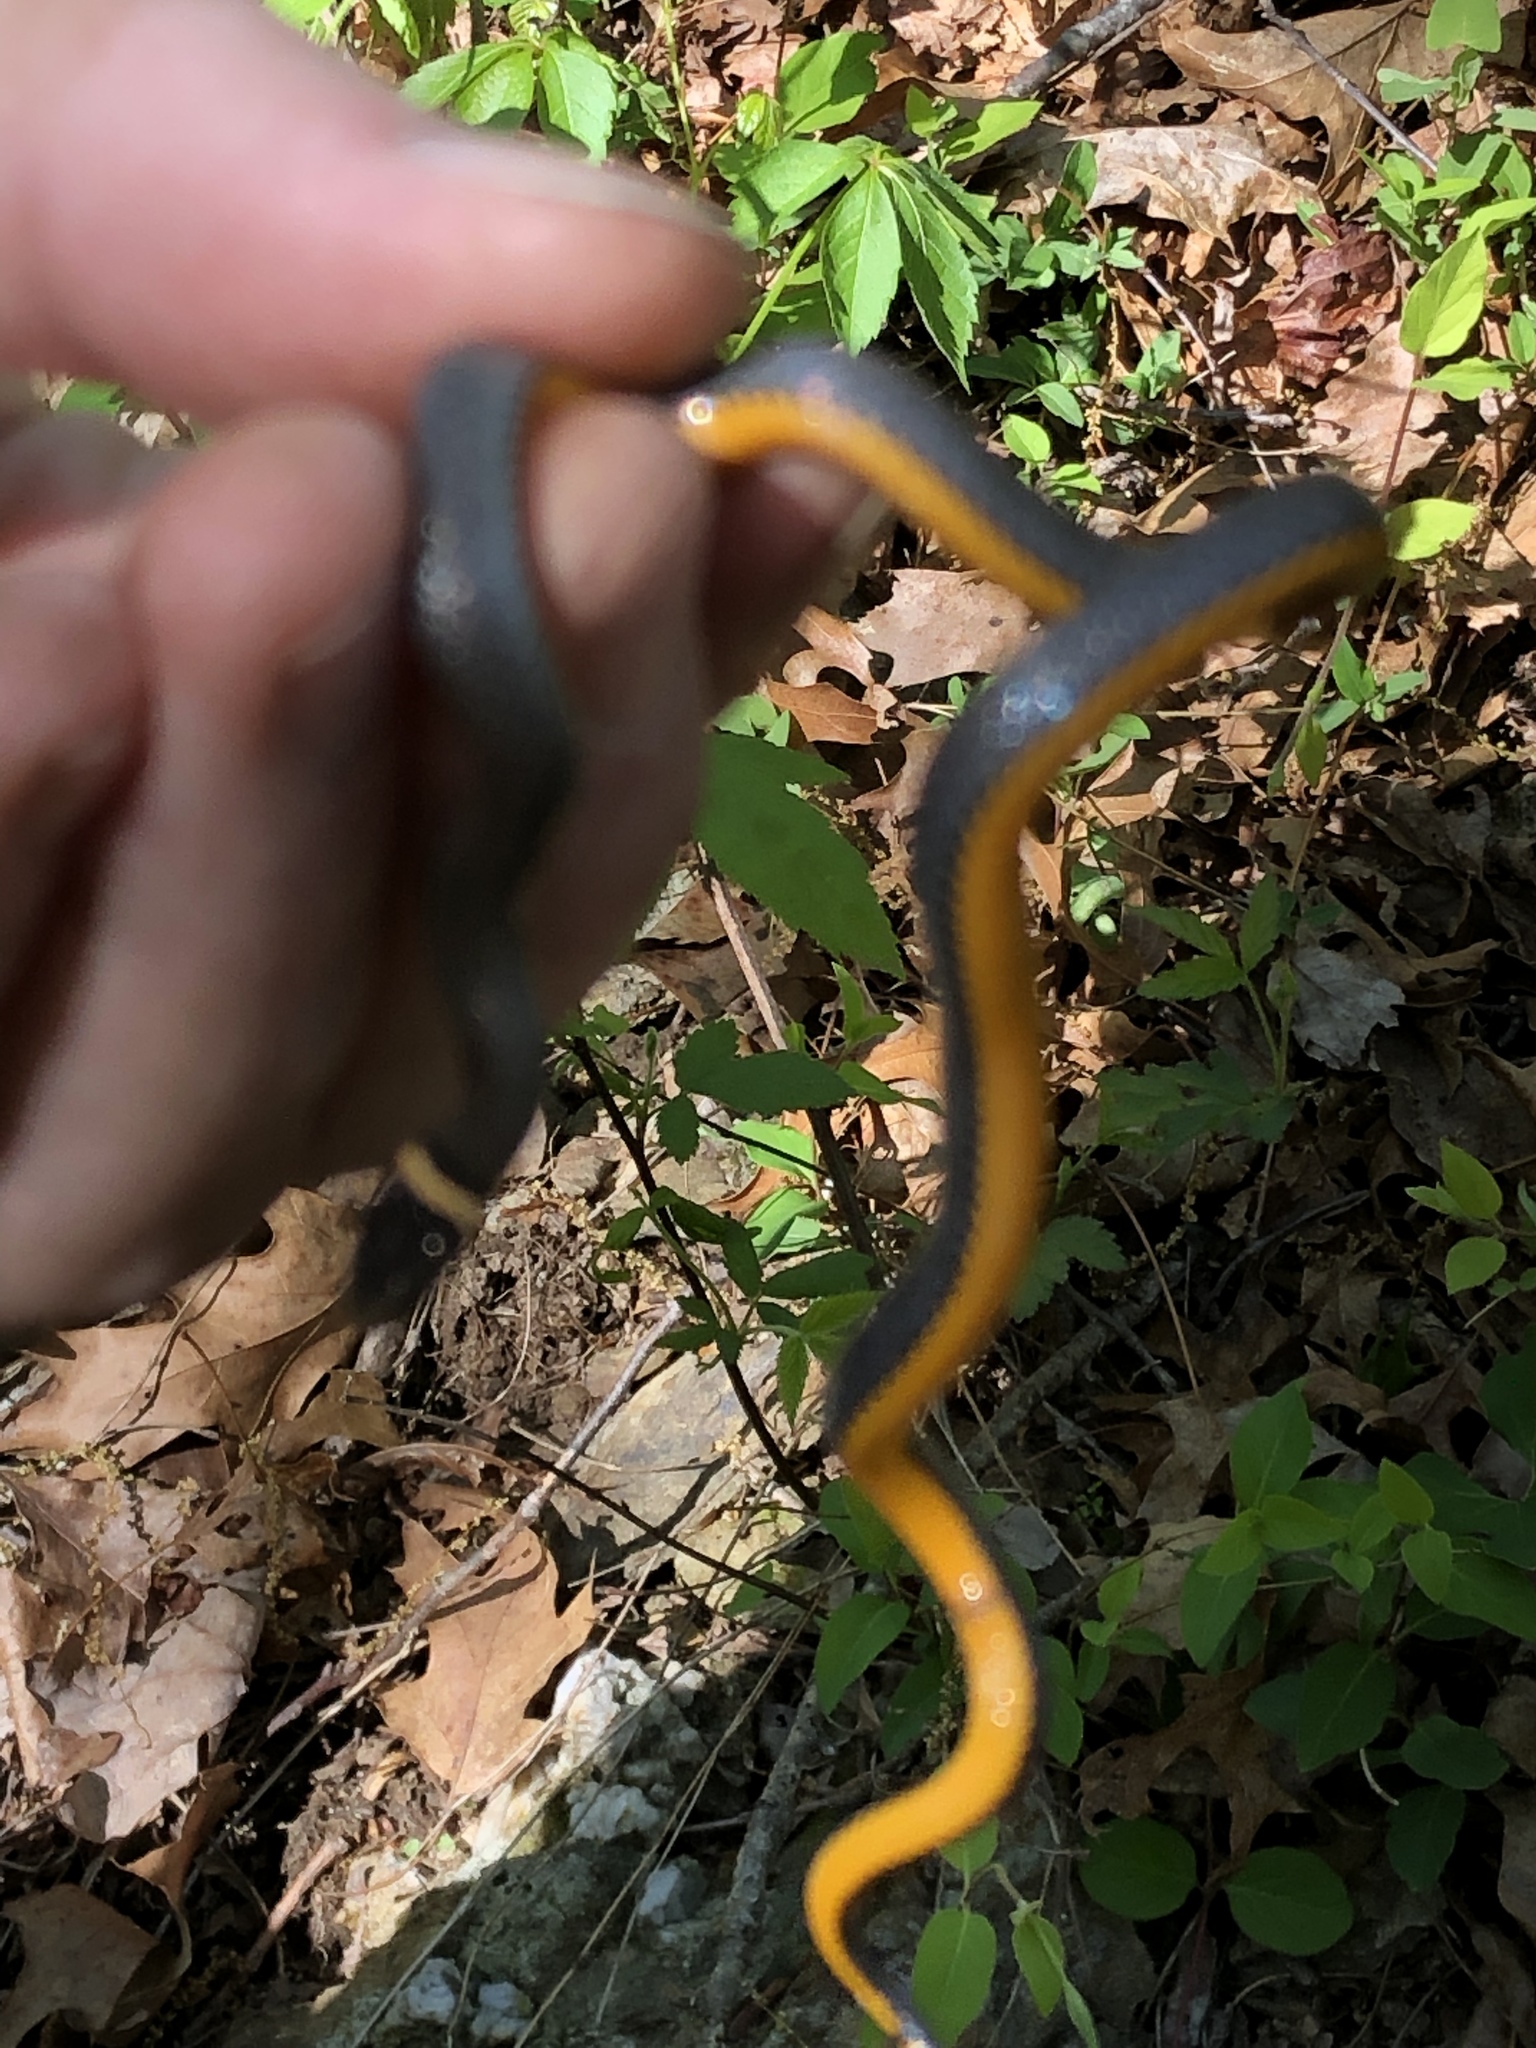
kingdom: Animalia
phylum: Chordata
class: Squamata
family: Colubridae
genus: Diadophis
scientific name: Diadophis punctatus
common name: Ringneck snake
